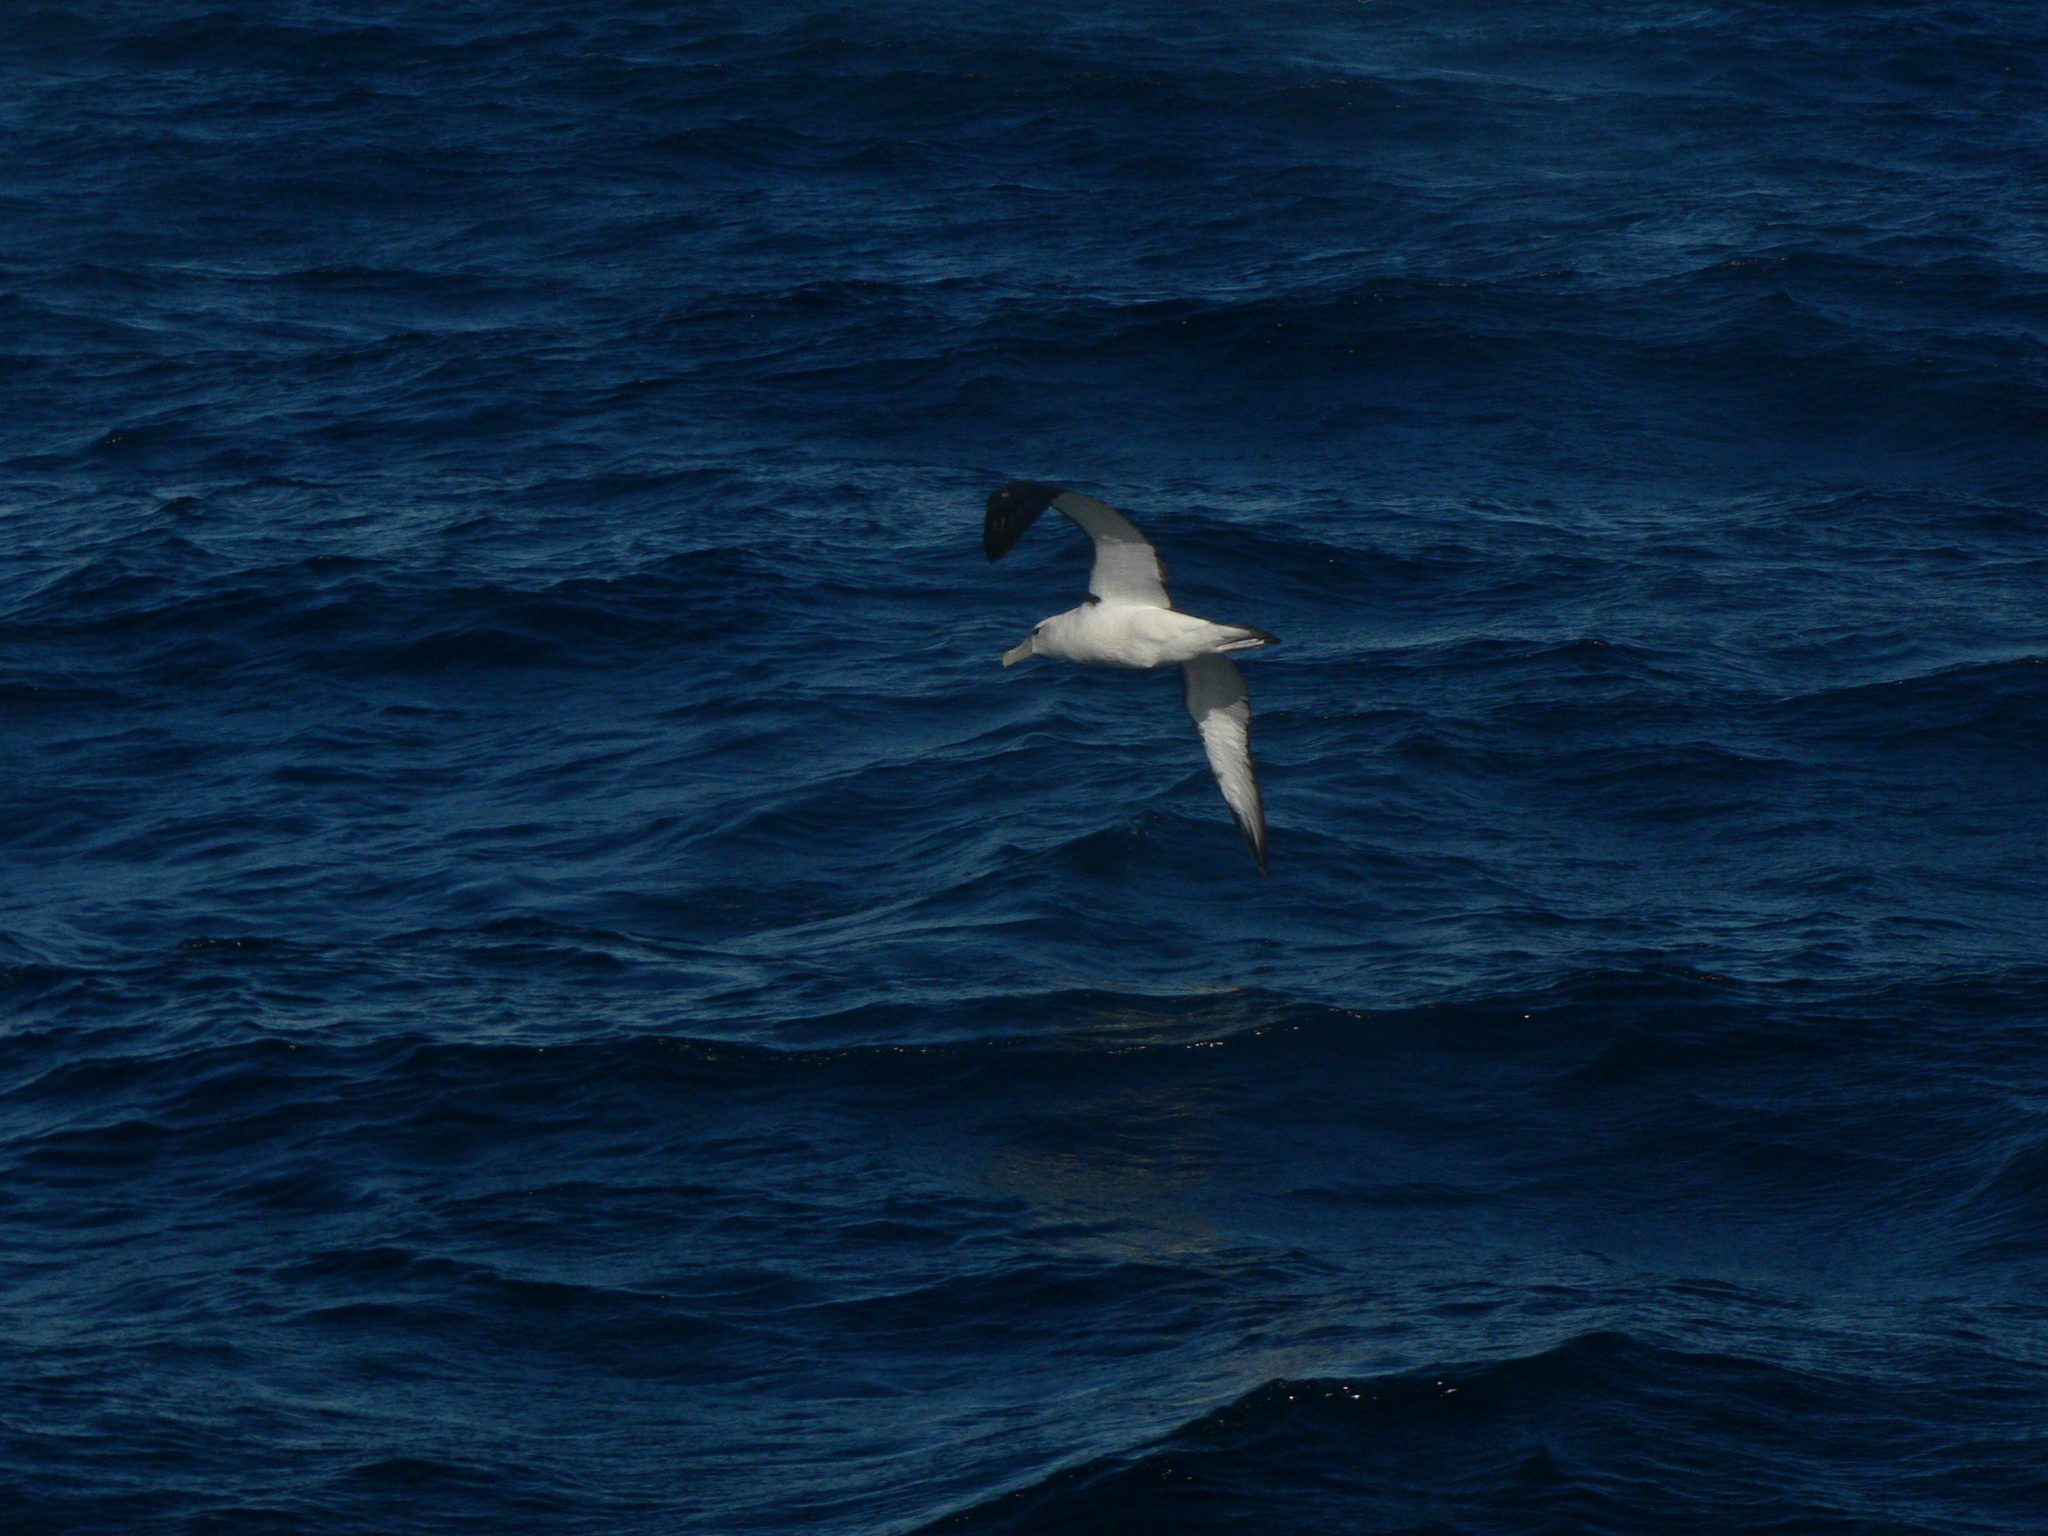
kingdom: Animalia
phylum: Chordata
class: Aves
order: Procellariiformes
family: Diomedeidae
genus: Thalassarche
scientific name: Thalassarche cauta
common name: Shy albatross
